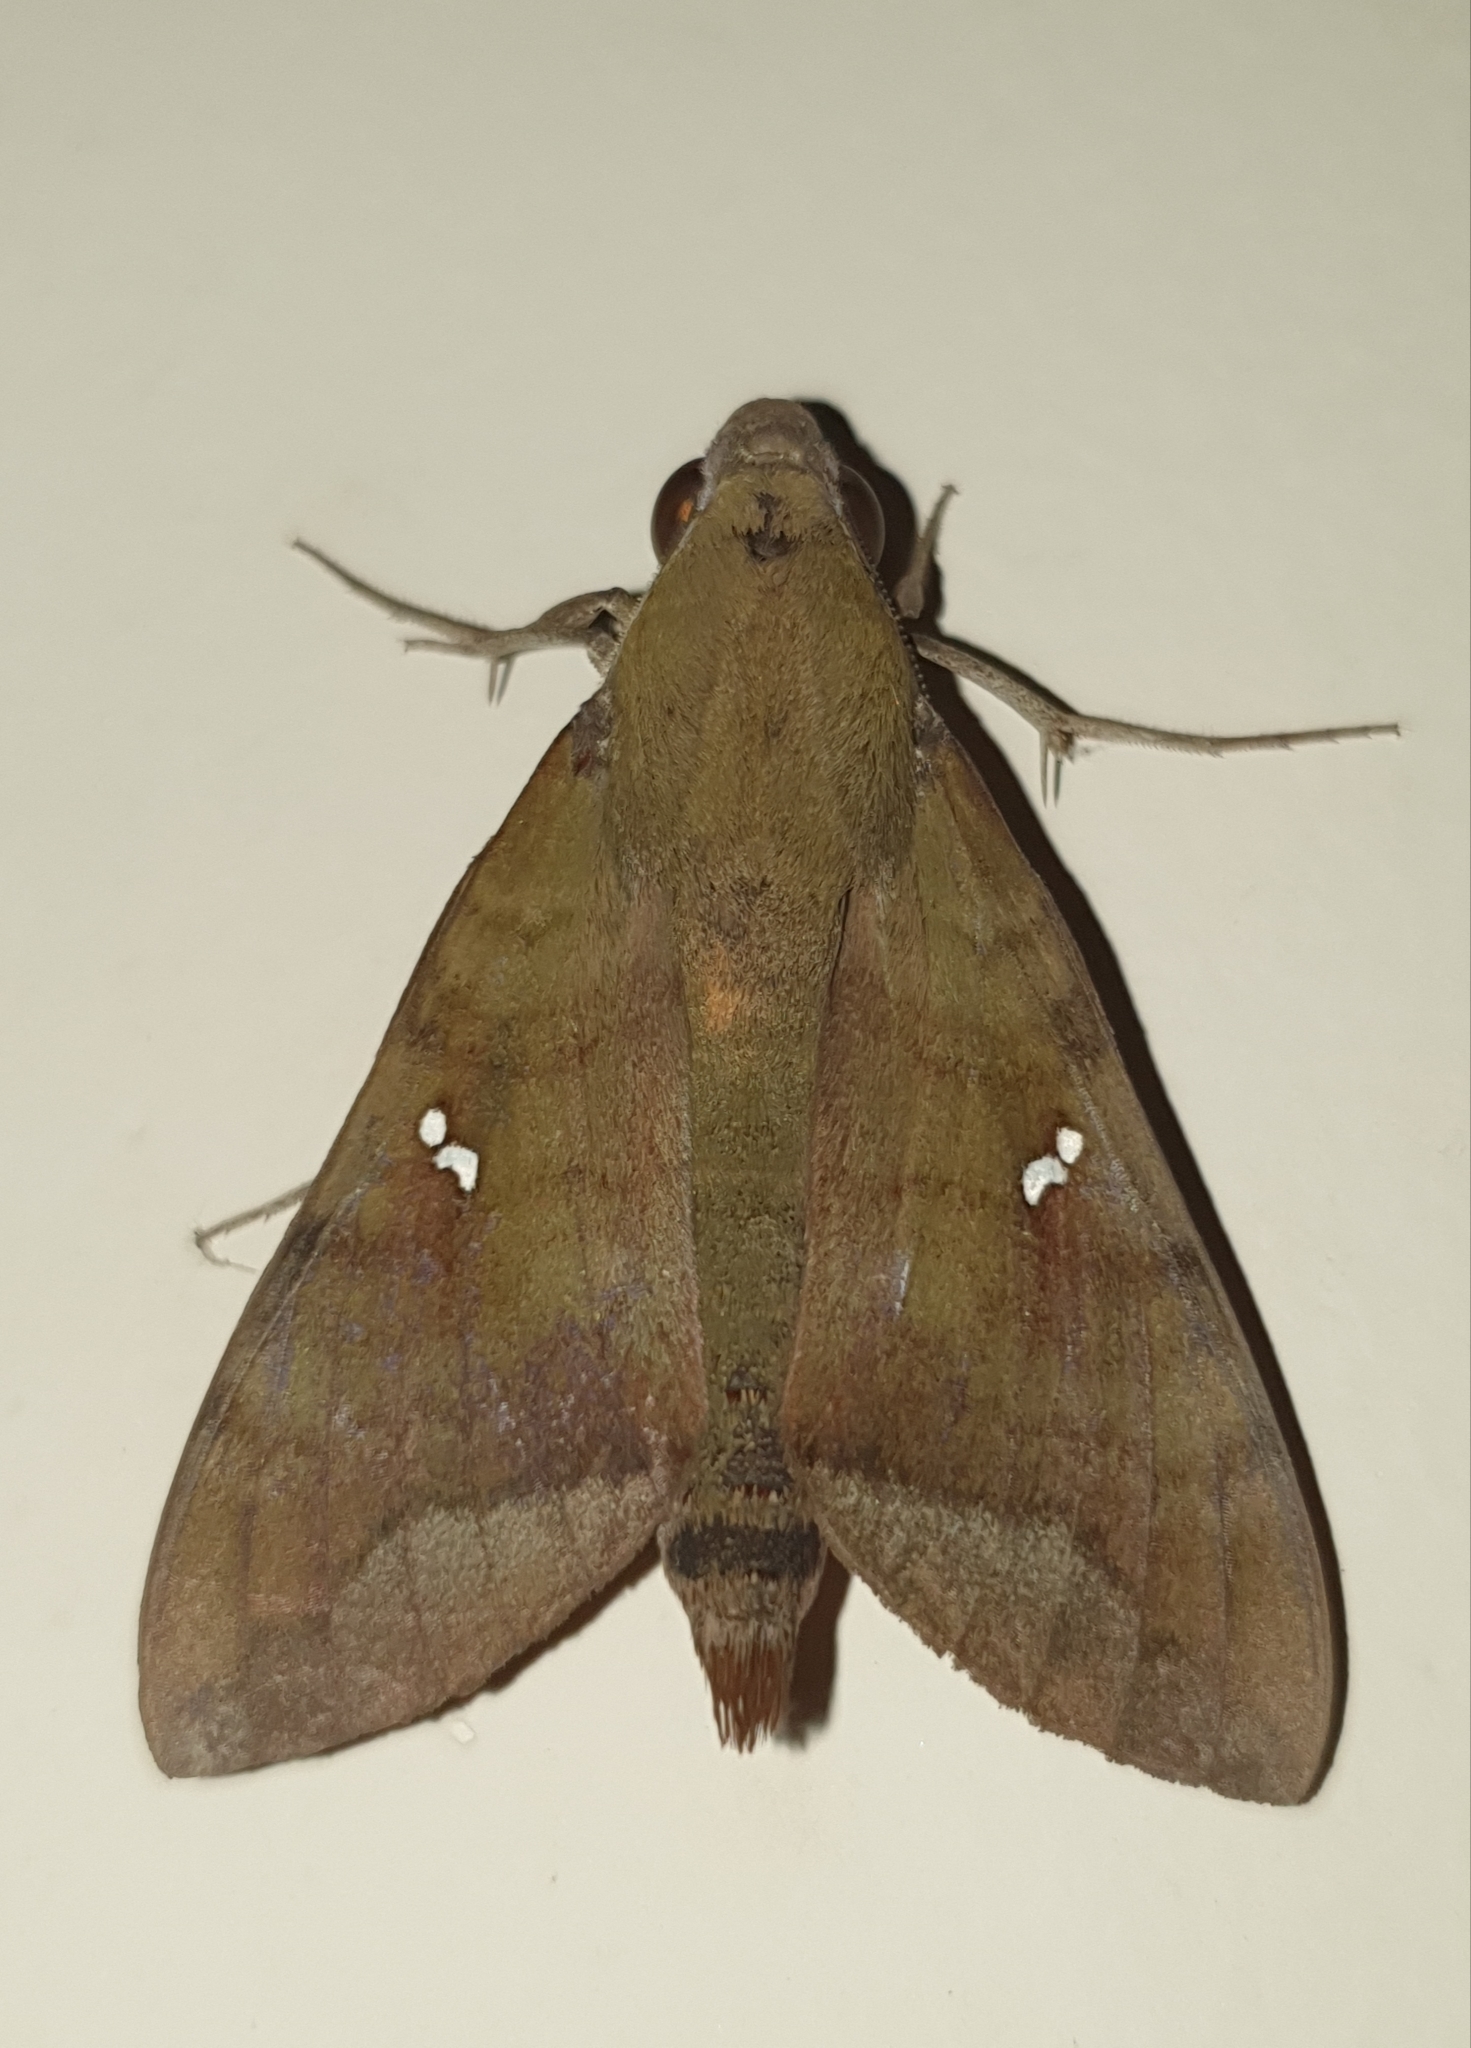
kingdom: Animalia
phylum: Arthropoda
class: Insecta
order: Lepidoptera
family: Sphingidae
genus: Nephele
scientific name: Nephele hespera
